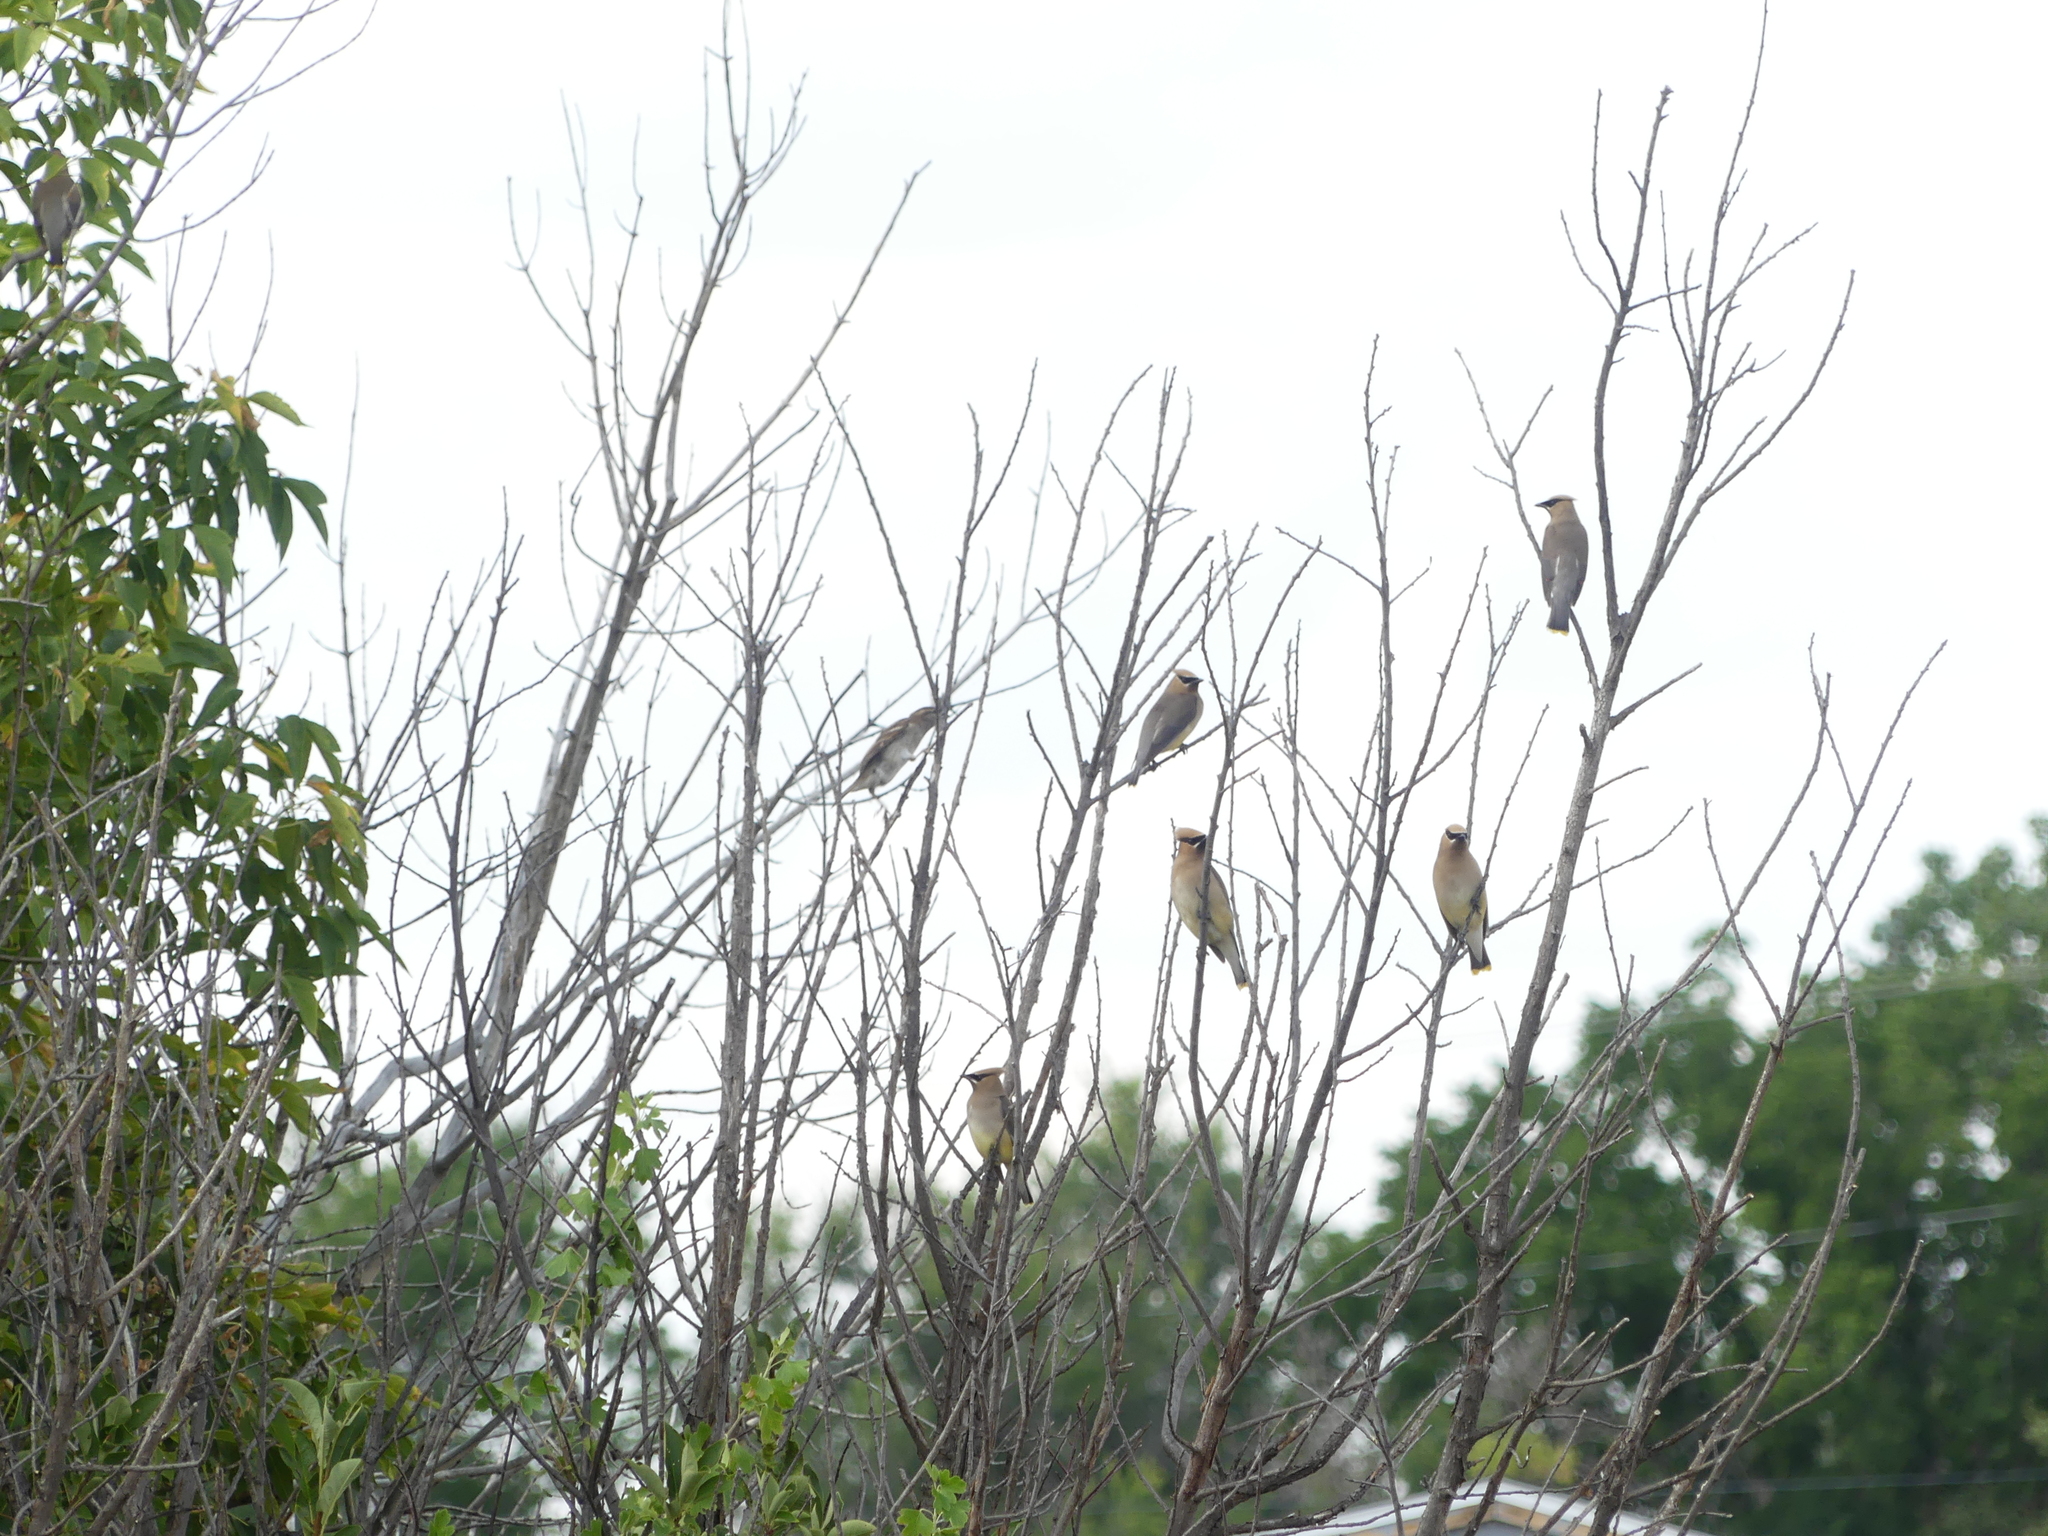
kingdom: Animalia
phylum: Chordata
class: Aves
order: Passeriformes
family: Bombycillidae
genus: Bombycilla
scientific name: Bombycilla cedrorum
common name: Cedar waxwing
